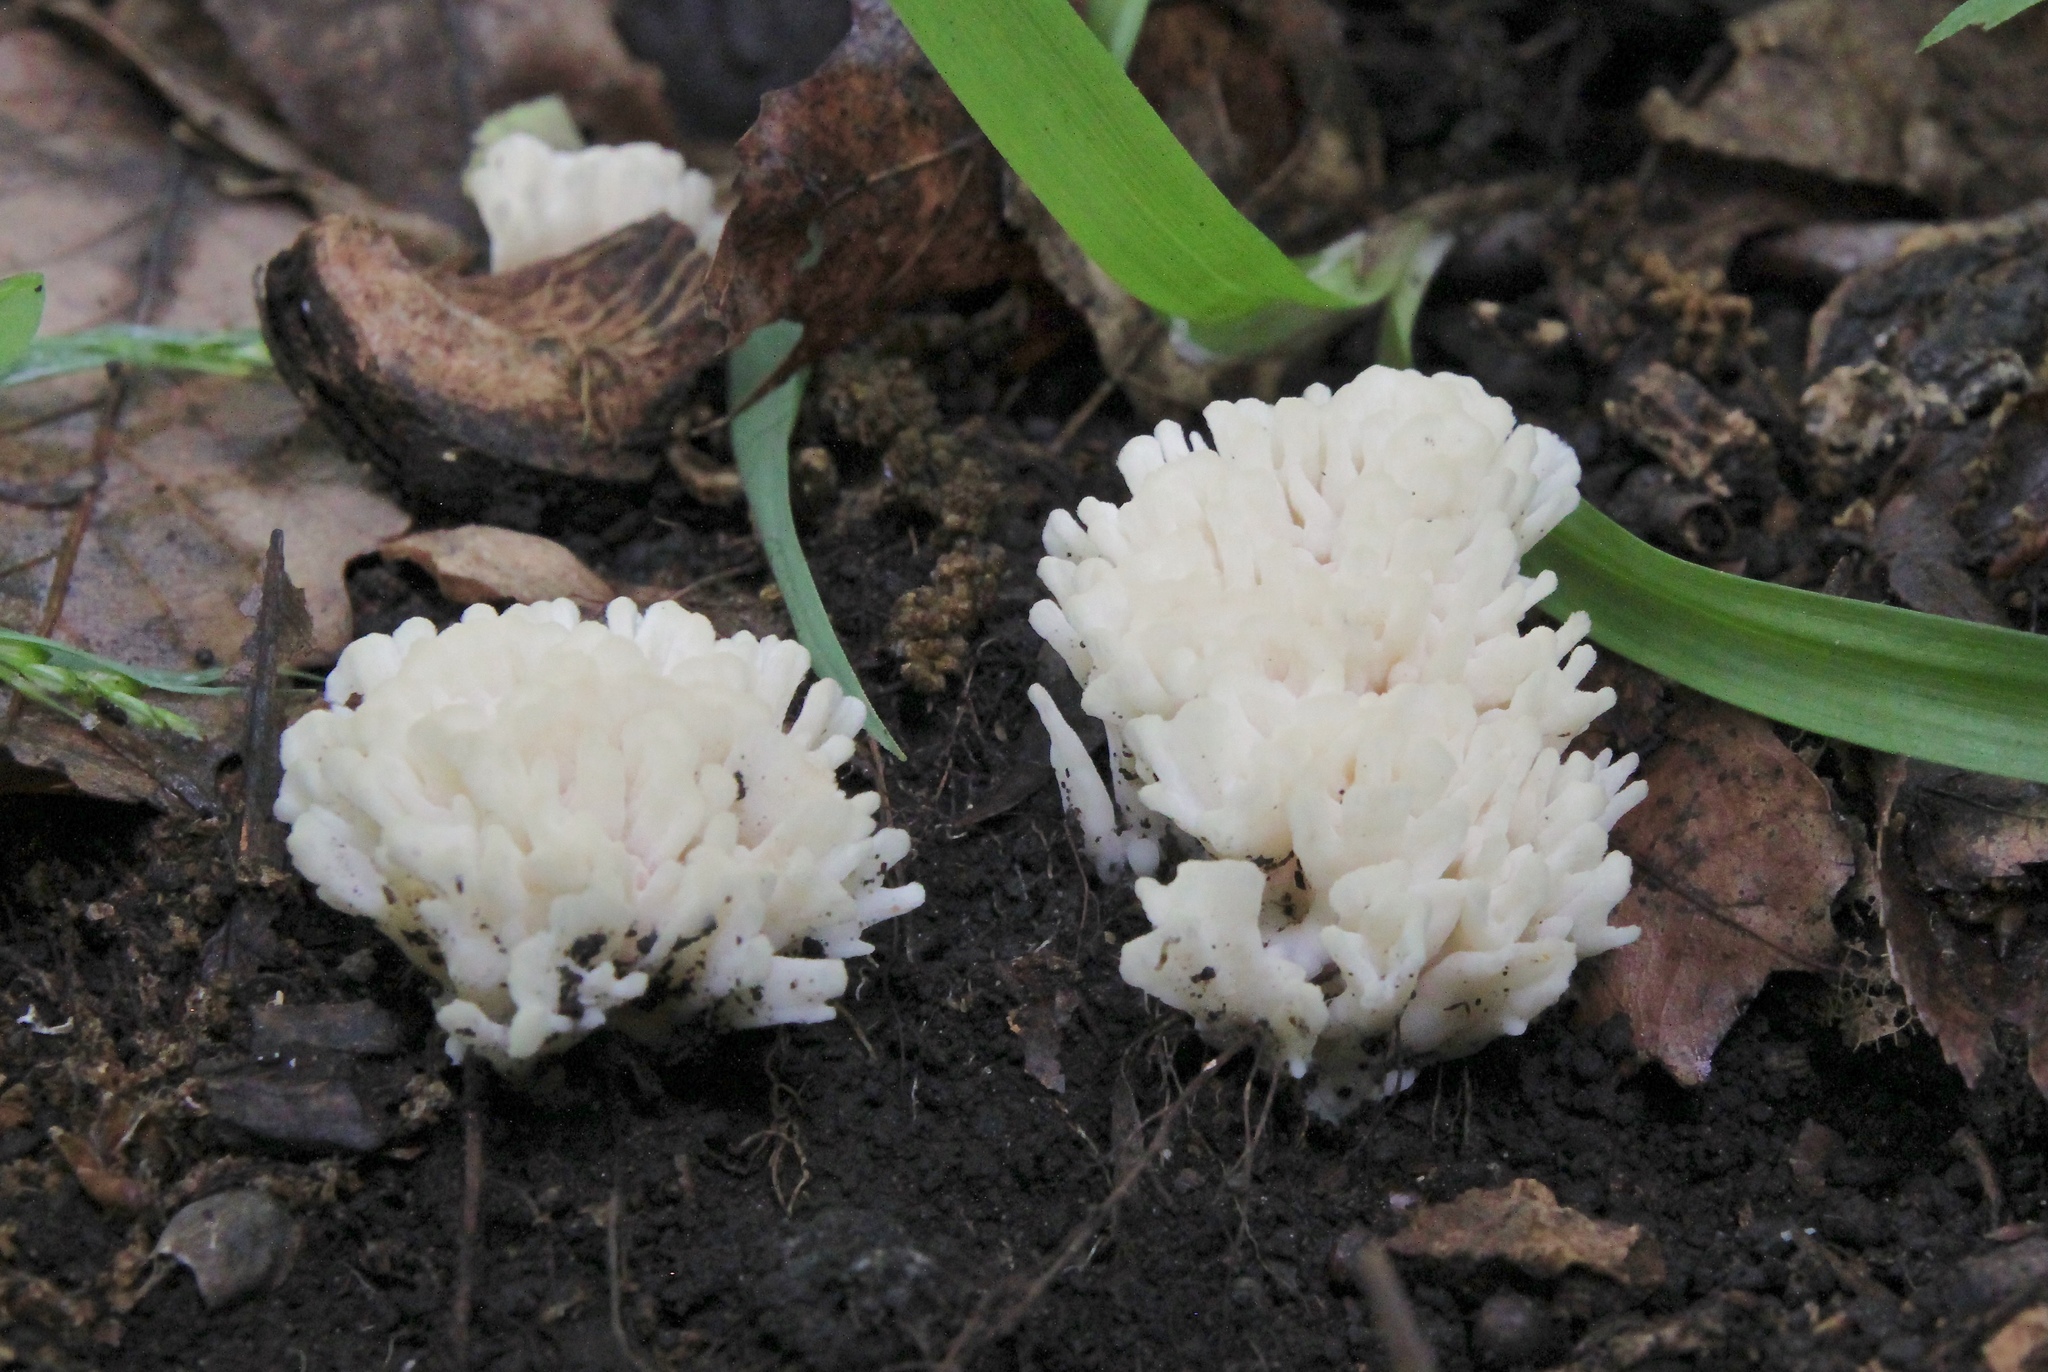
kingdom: Fungi
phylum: Basidiomycota
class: Agaricomycetes
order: Sebacinales
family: Sebacinaceae
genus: Sebacina
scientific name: Sebacina schweinitzii
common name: Jellied false coral fungus
